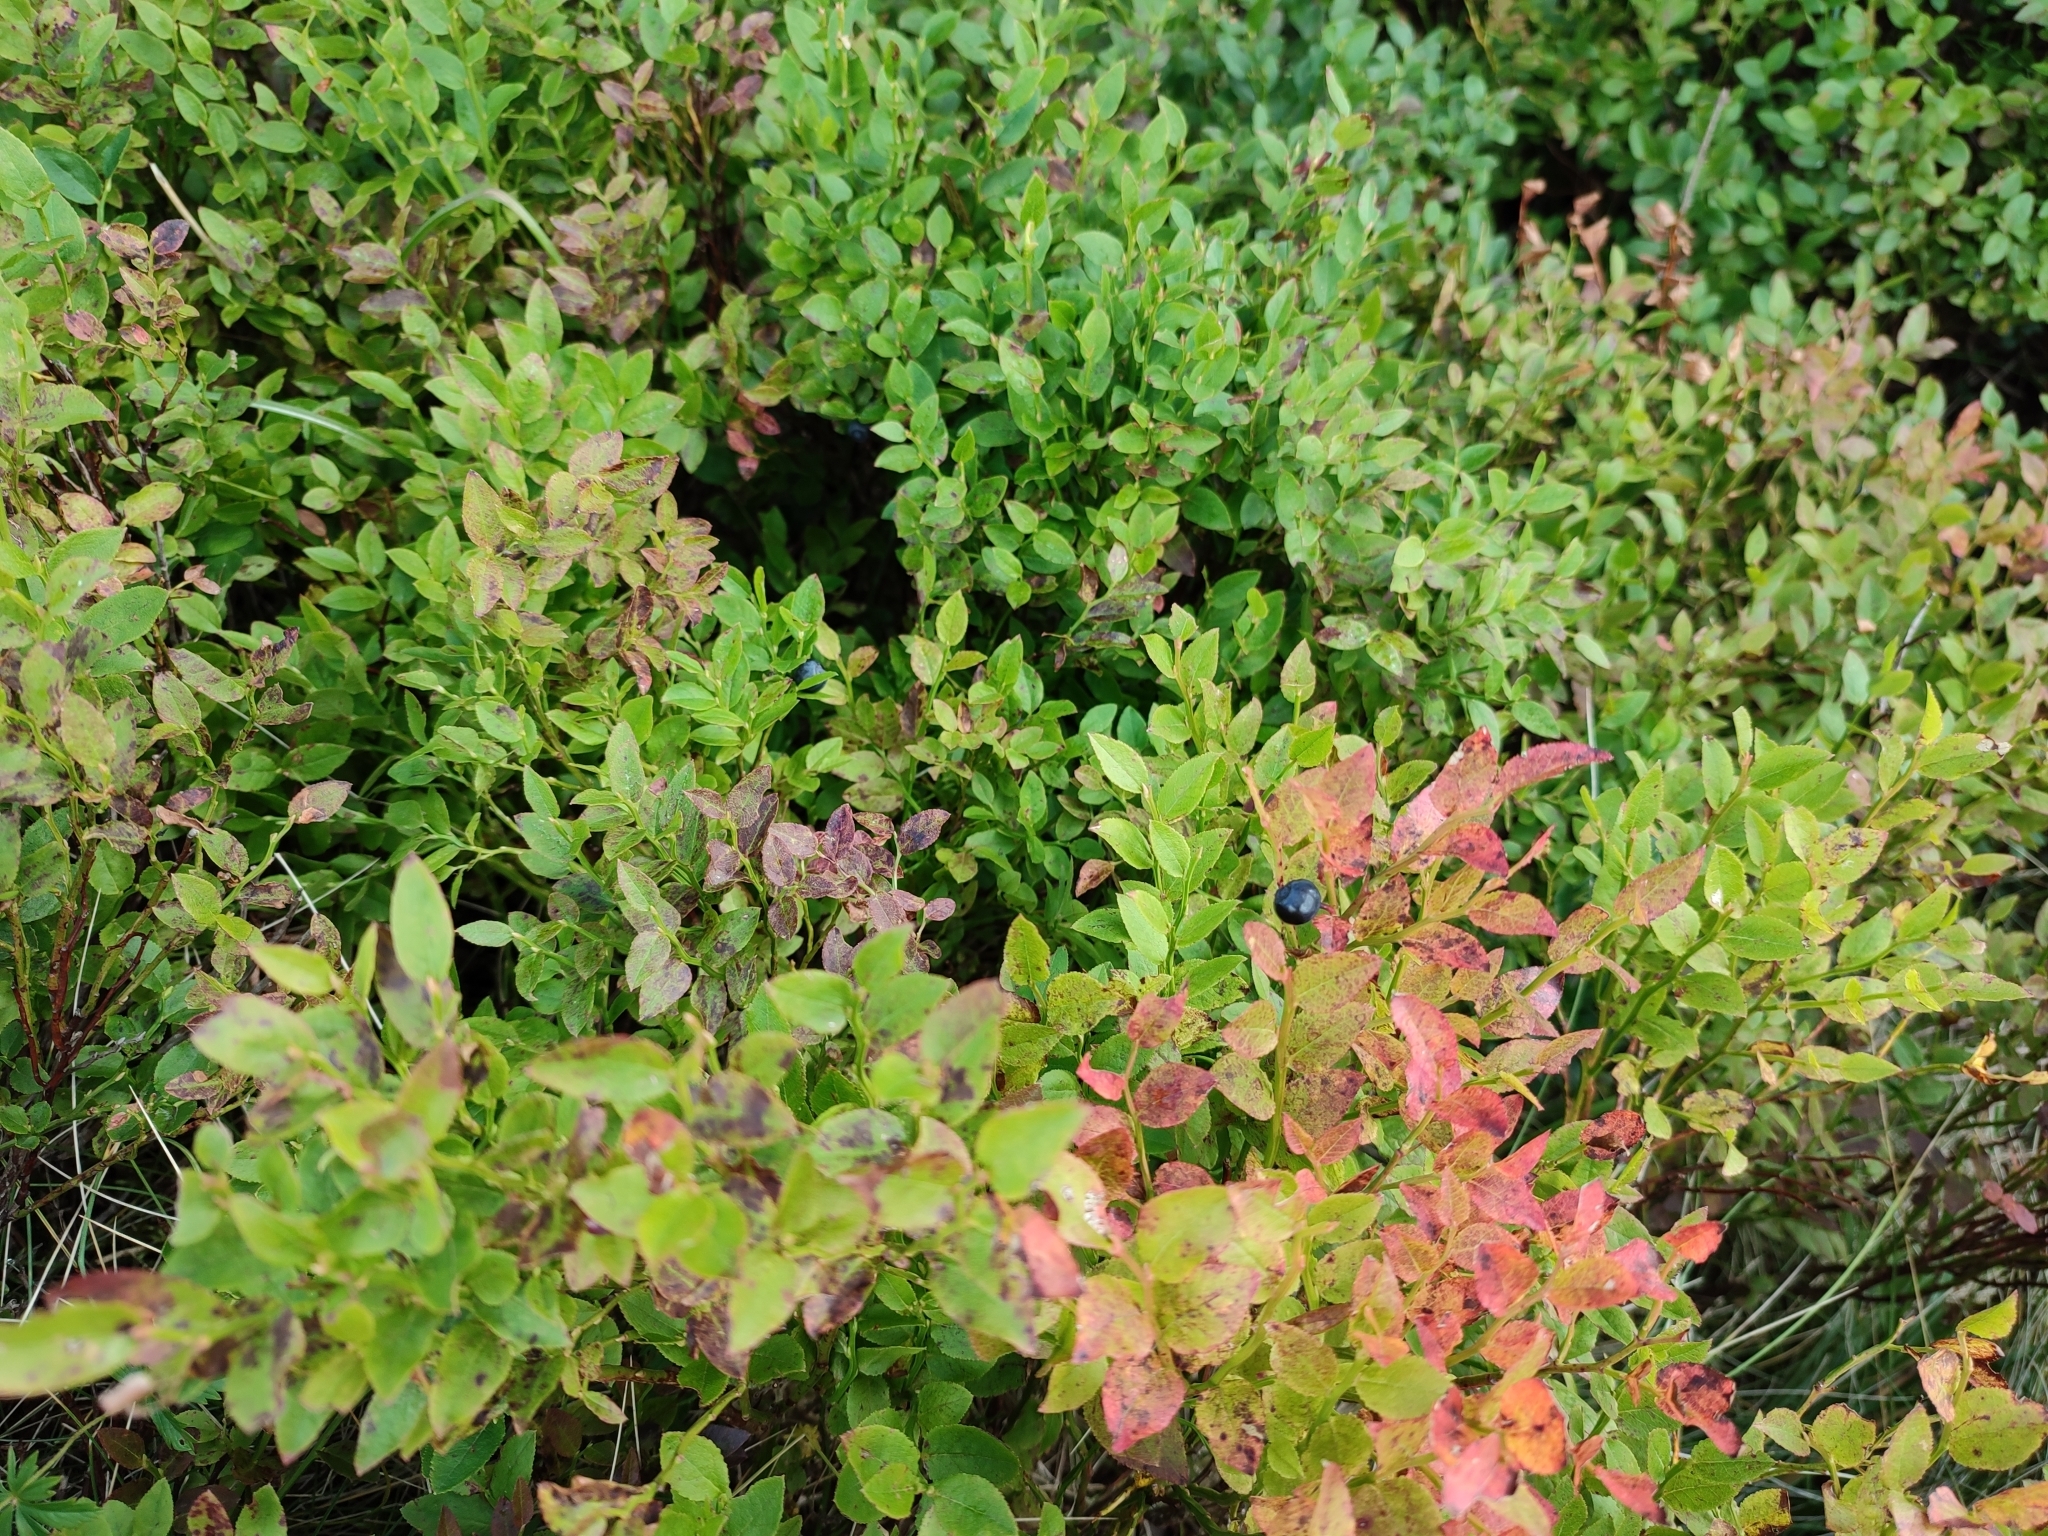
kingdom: Plantae
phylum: Tracheophyta
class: Magnoliopsida
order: Ericales
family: Ericaceae
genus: Vaccinium
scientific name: Vaccinium myrtillus
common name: Bilberry
